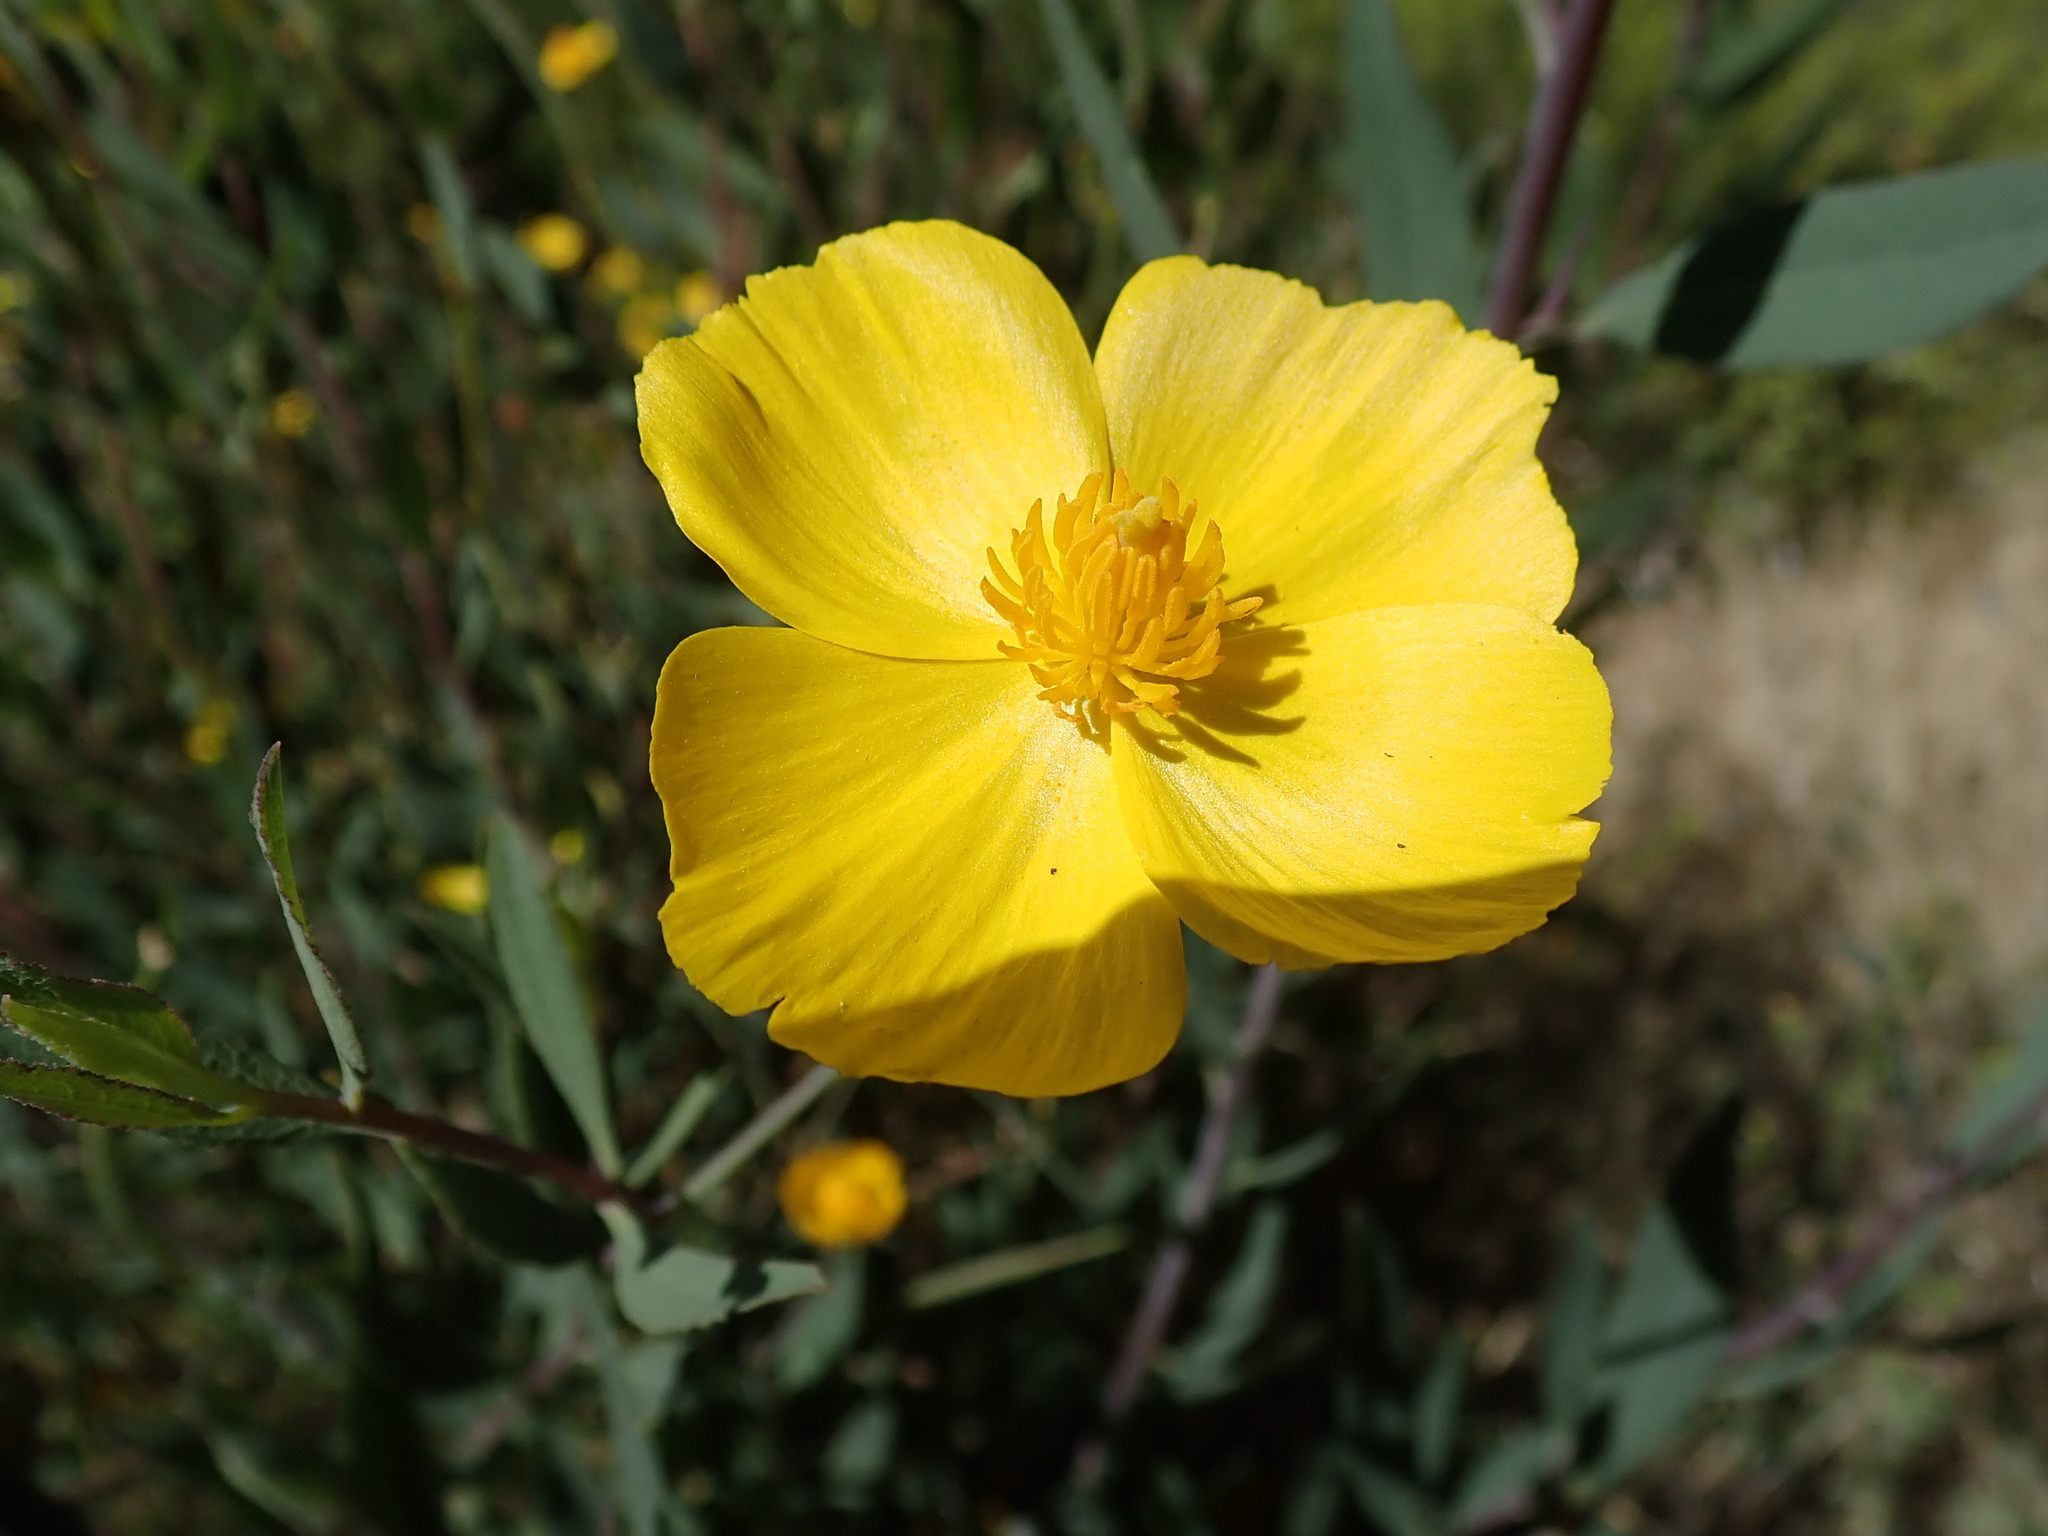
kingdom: Plantae
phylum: Tracheophyta
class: Magnoliopsida
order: Ranunculales
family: Papaveraceae
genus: Dendromecon
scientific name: Dendromecon rigida
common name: Tree poppy
